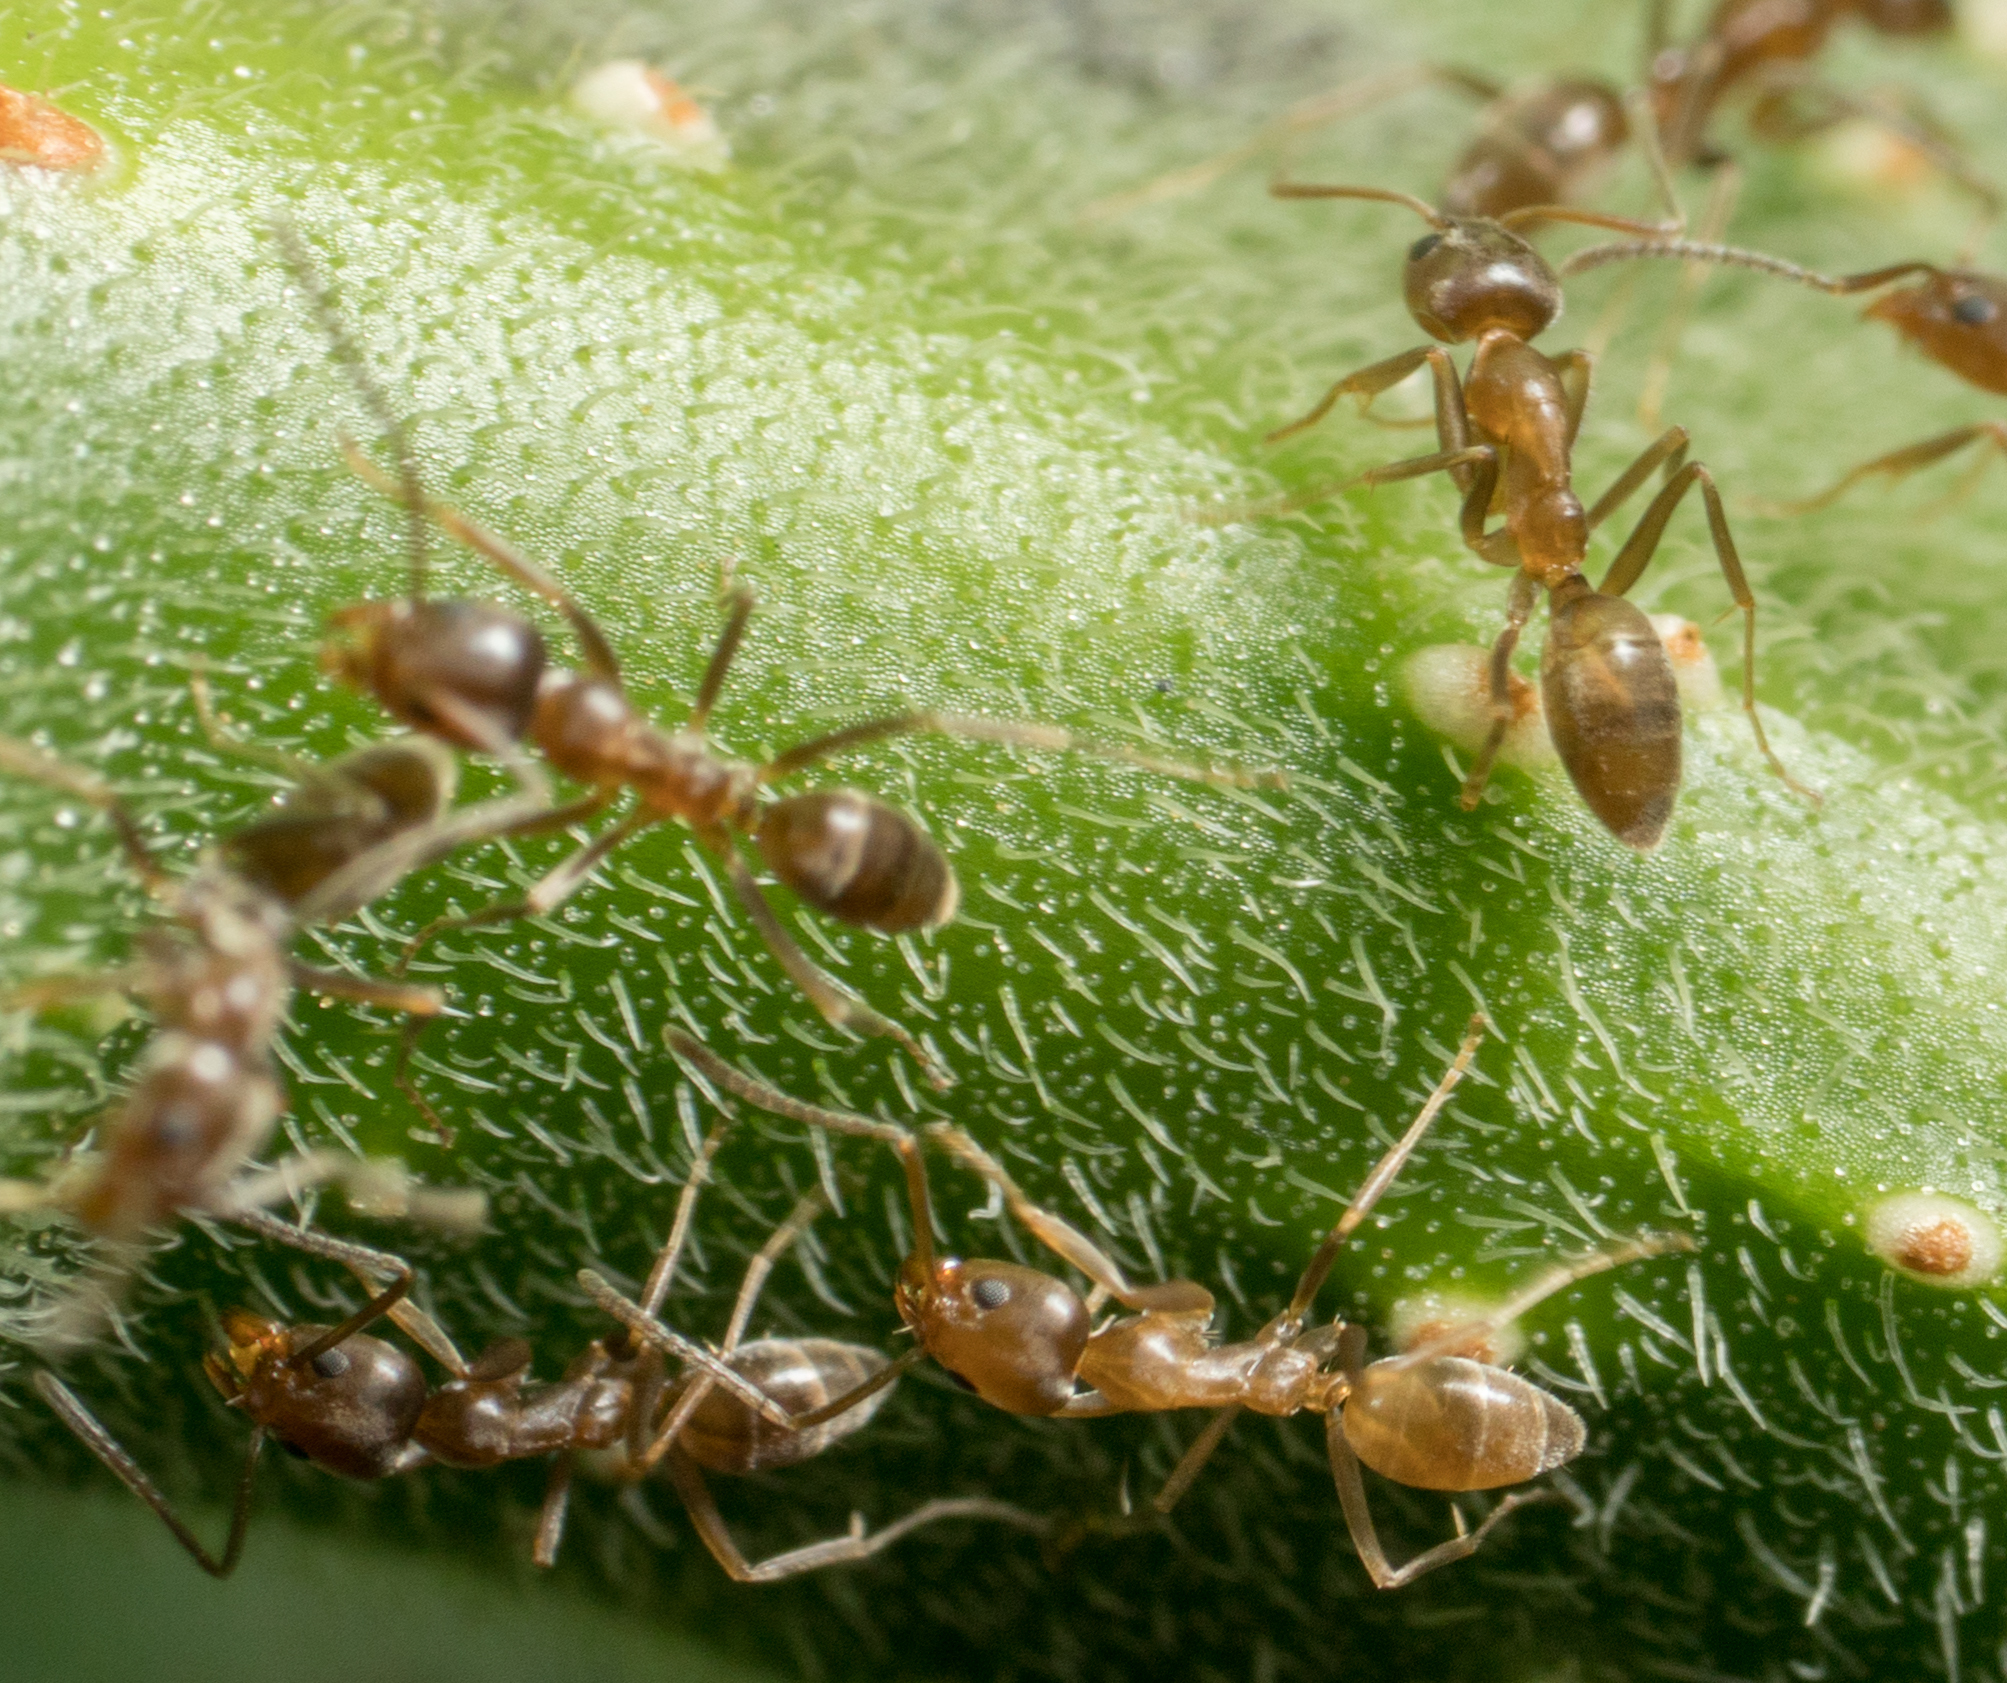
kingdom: Animalia
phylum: Arthropoda
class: Insecta
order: Hymenoptera
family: Formicidae
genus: Linepithema
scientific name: Linepithema humile
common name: Argentine ant
